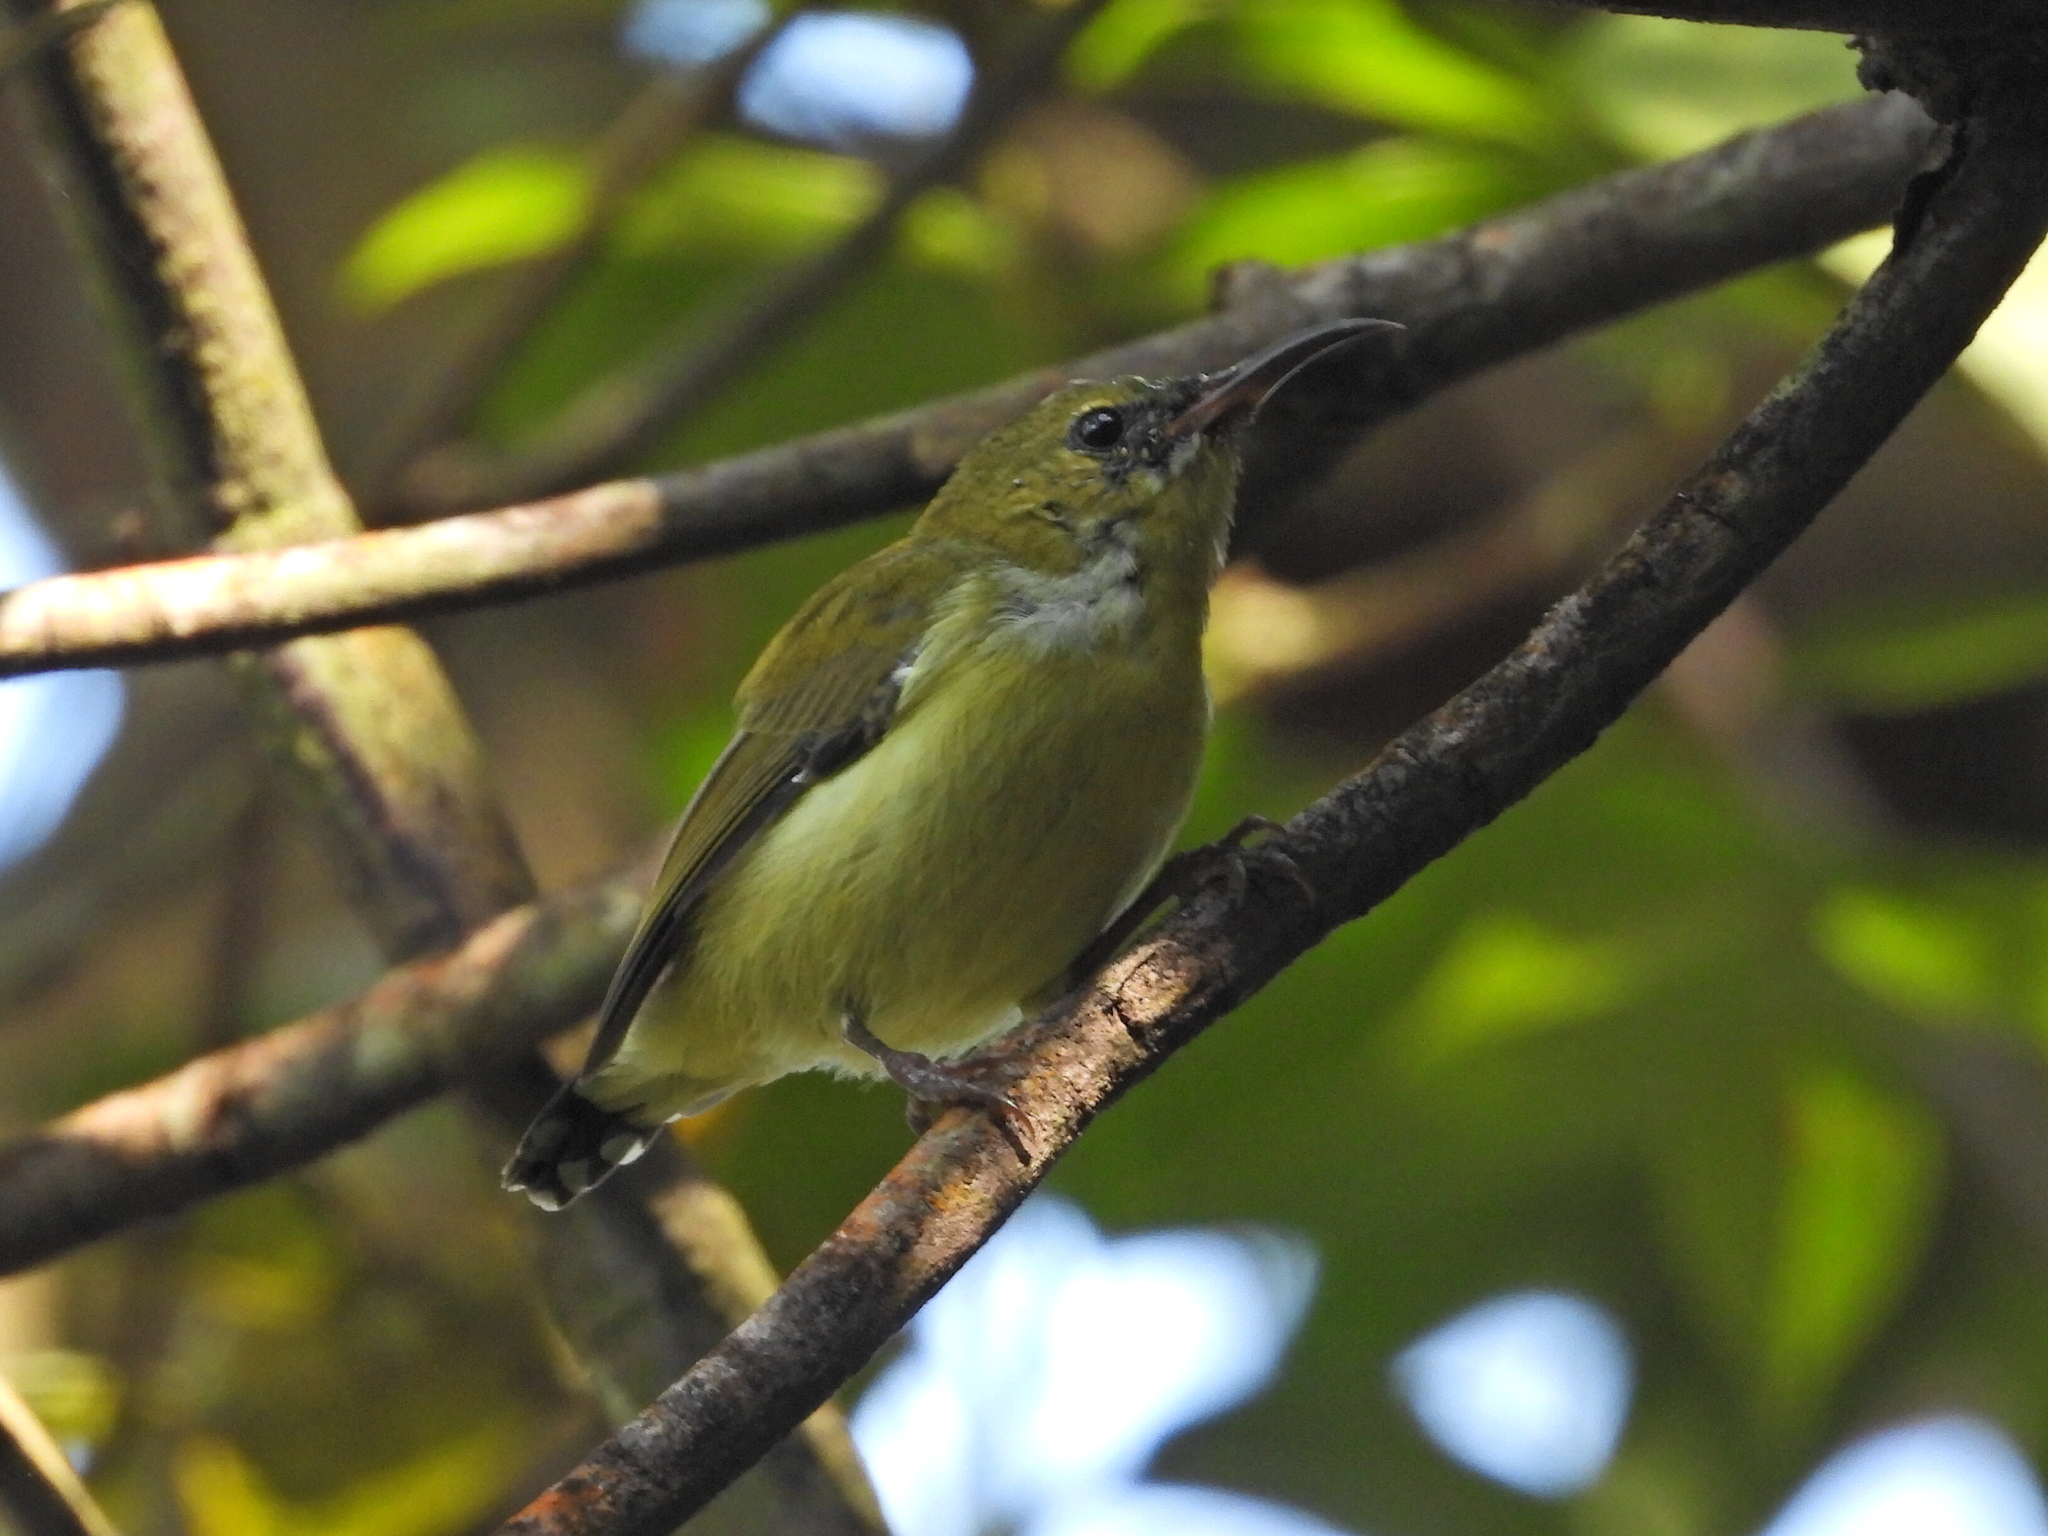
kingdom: Animalia
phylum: Chordata
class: Aves
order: Passeriformes
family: Nectariniidae
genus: Aethopyga
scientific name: Aethopyga christinae
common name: Fork-tailed sunbird
